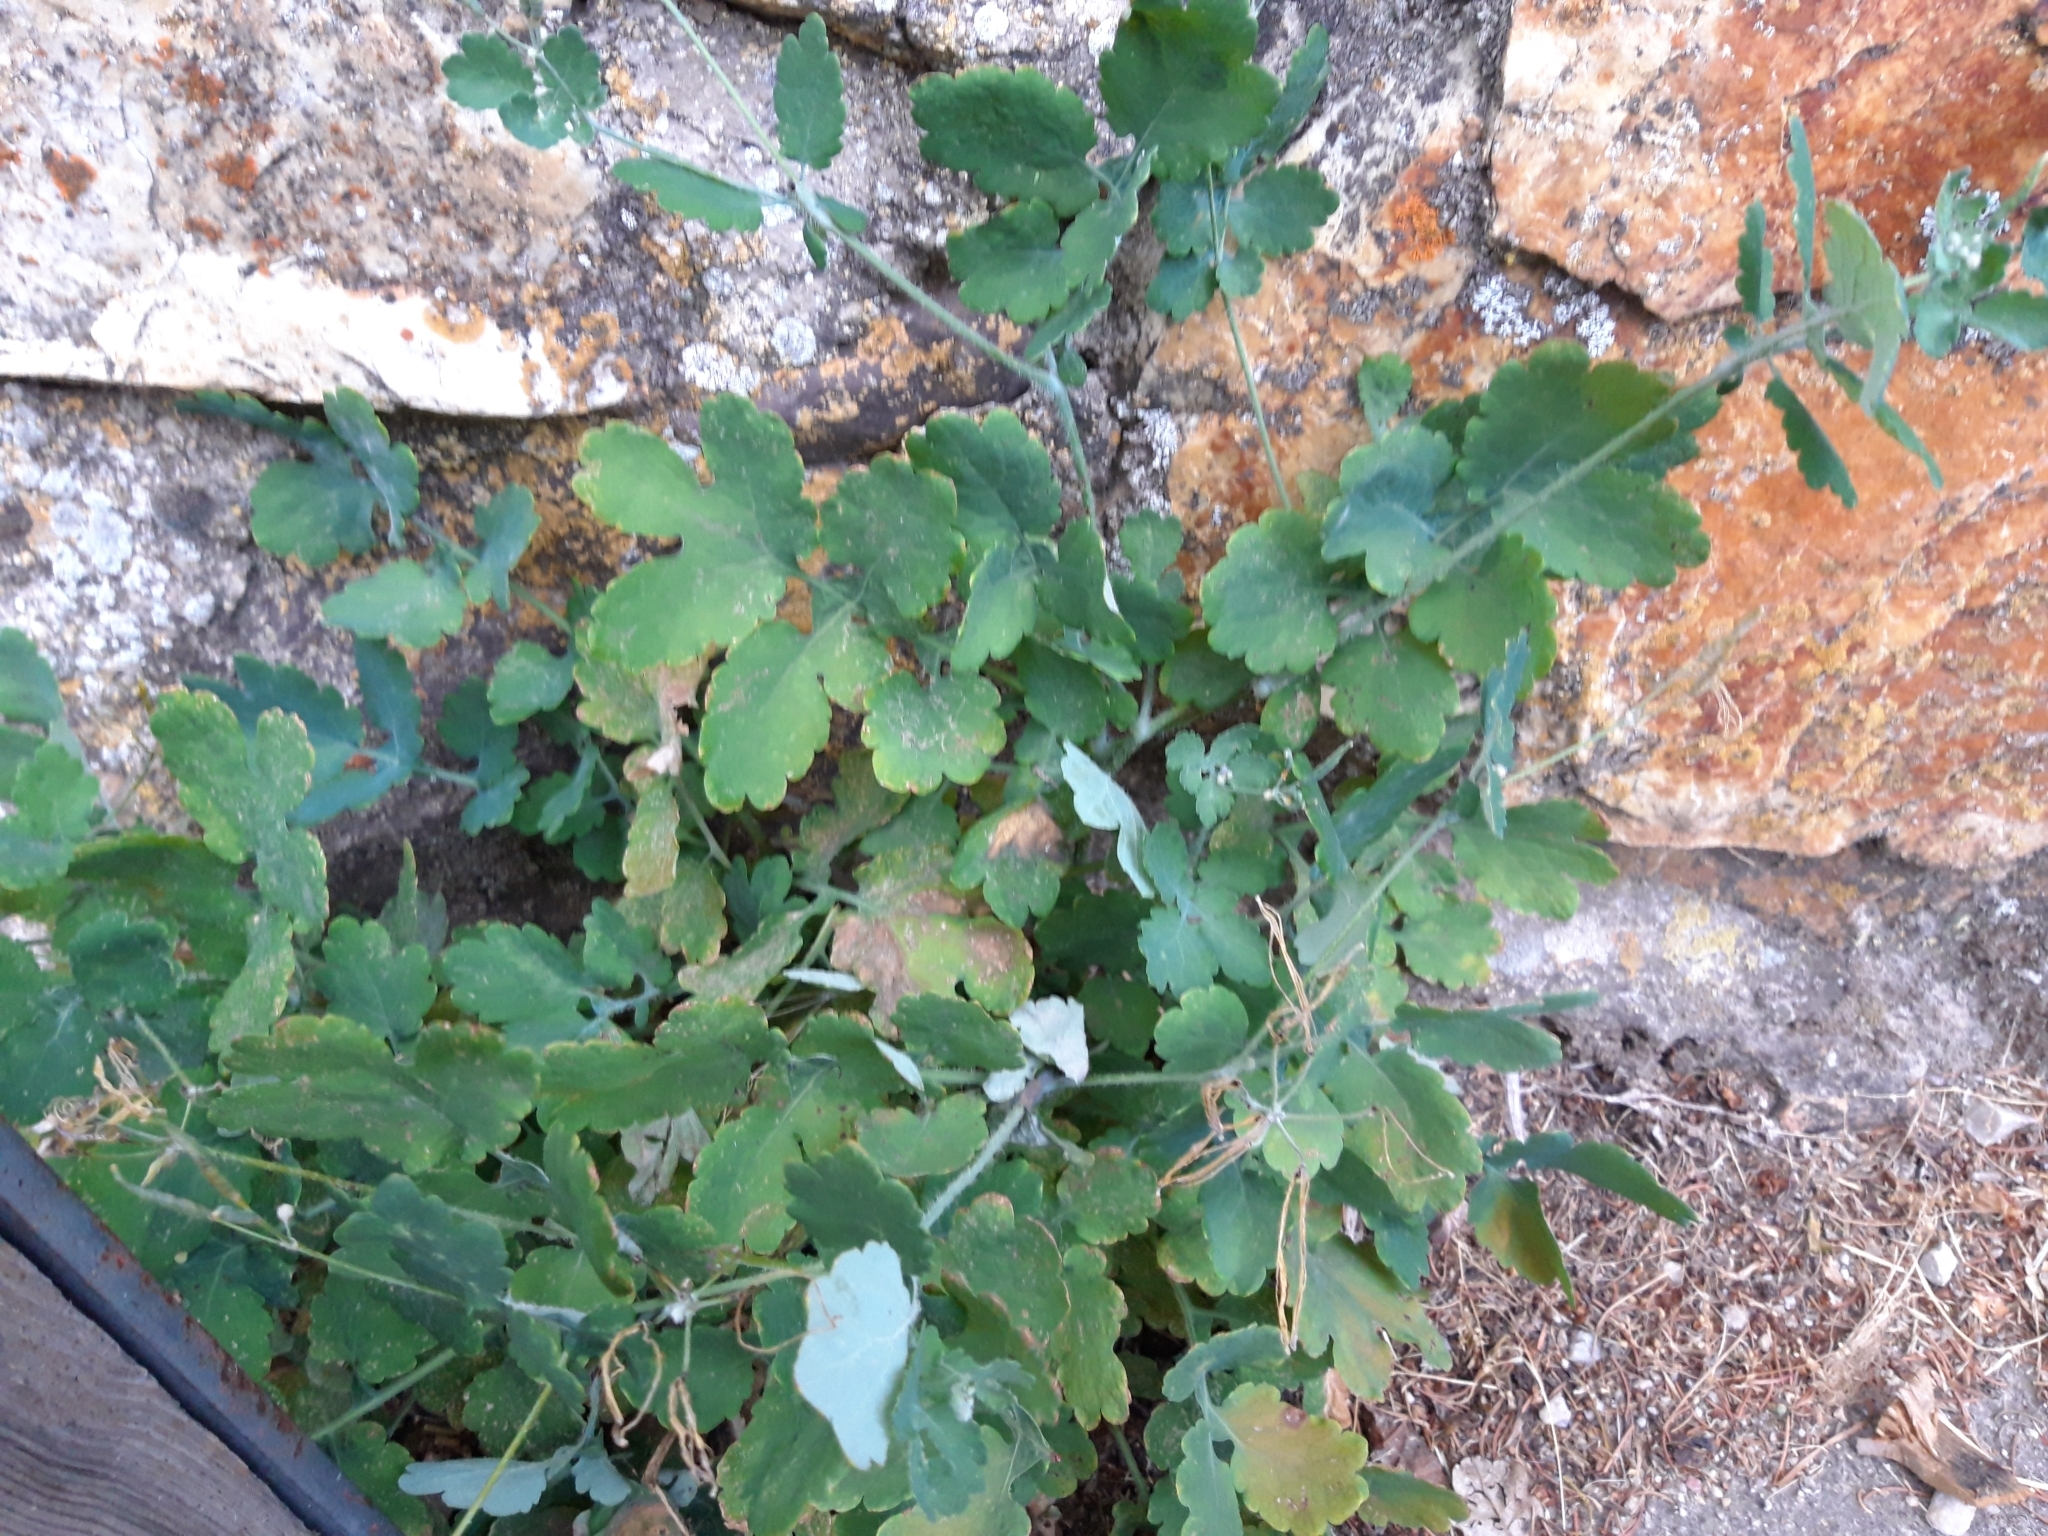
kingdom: Plantae
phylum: Tracheophyta
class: Magnoliopsida
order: Ranunculales
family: Papaveraceae
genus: Chelidonium
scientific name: Chelidonium majus
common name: Greater celandine
